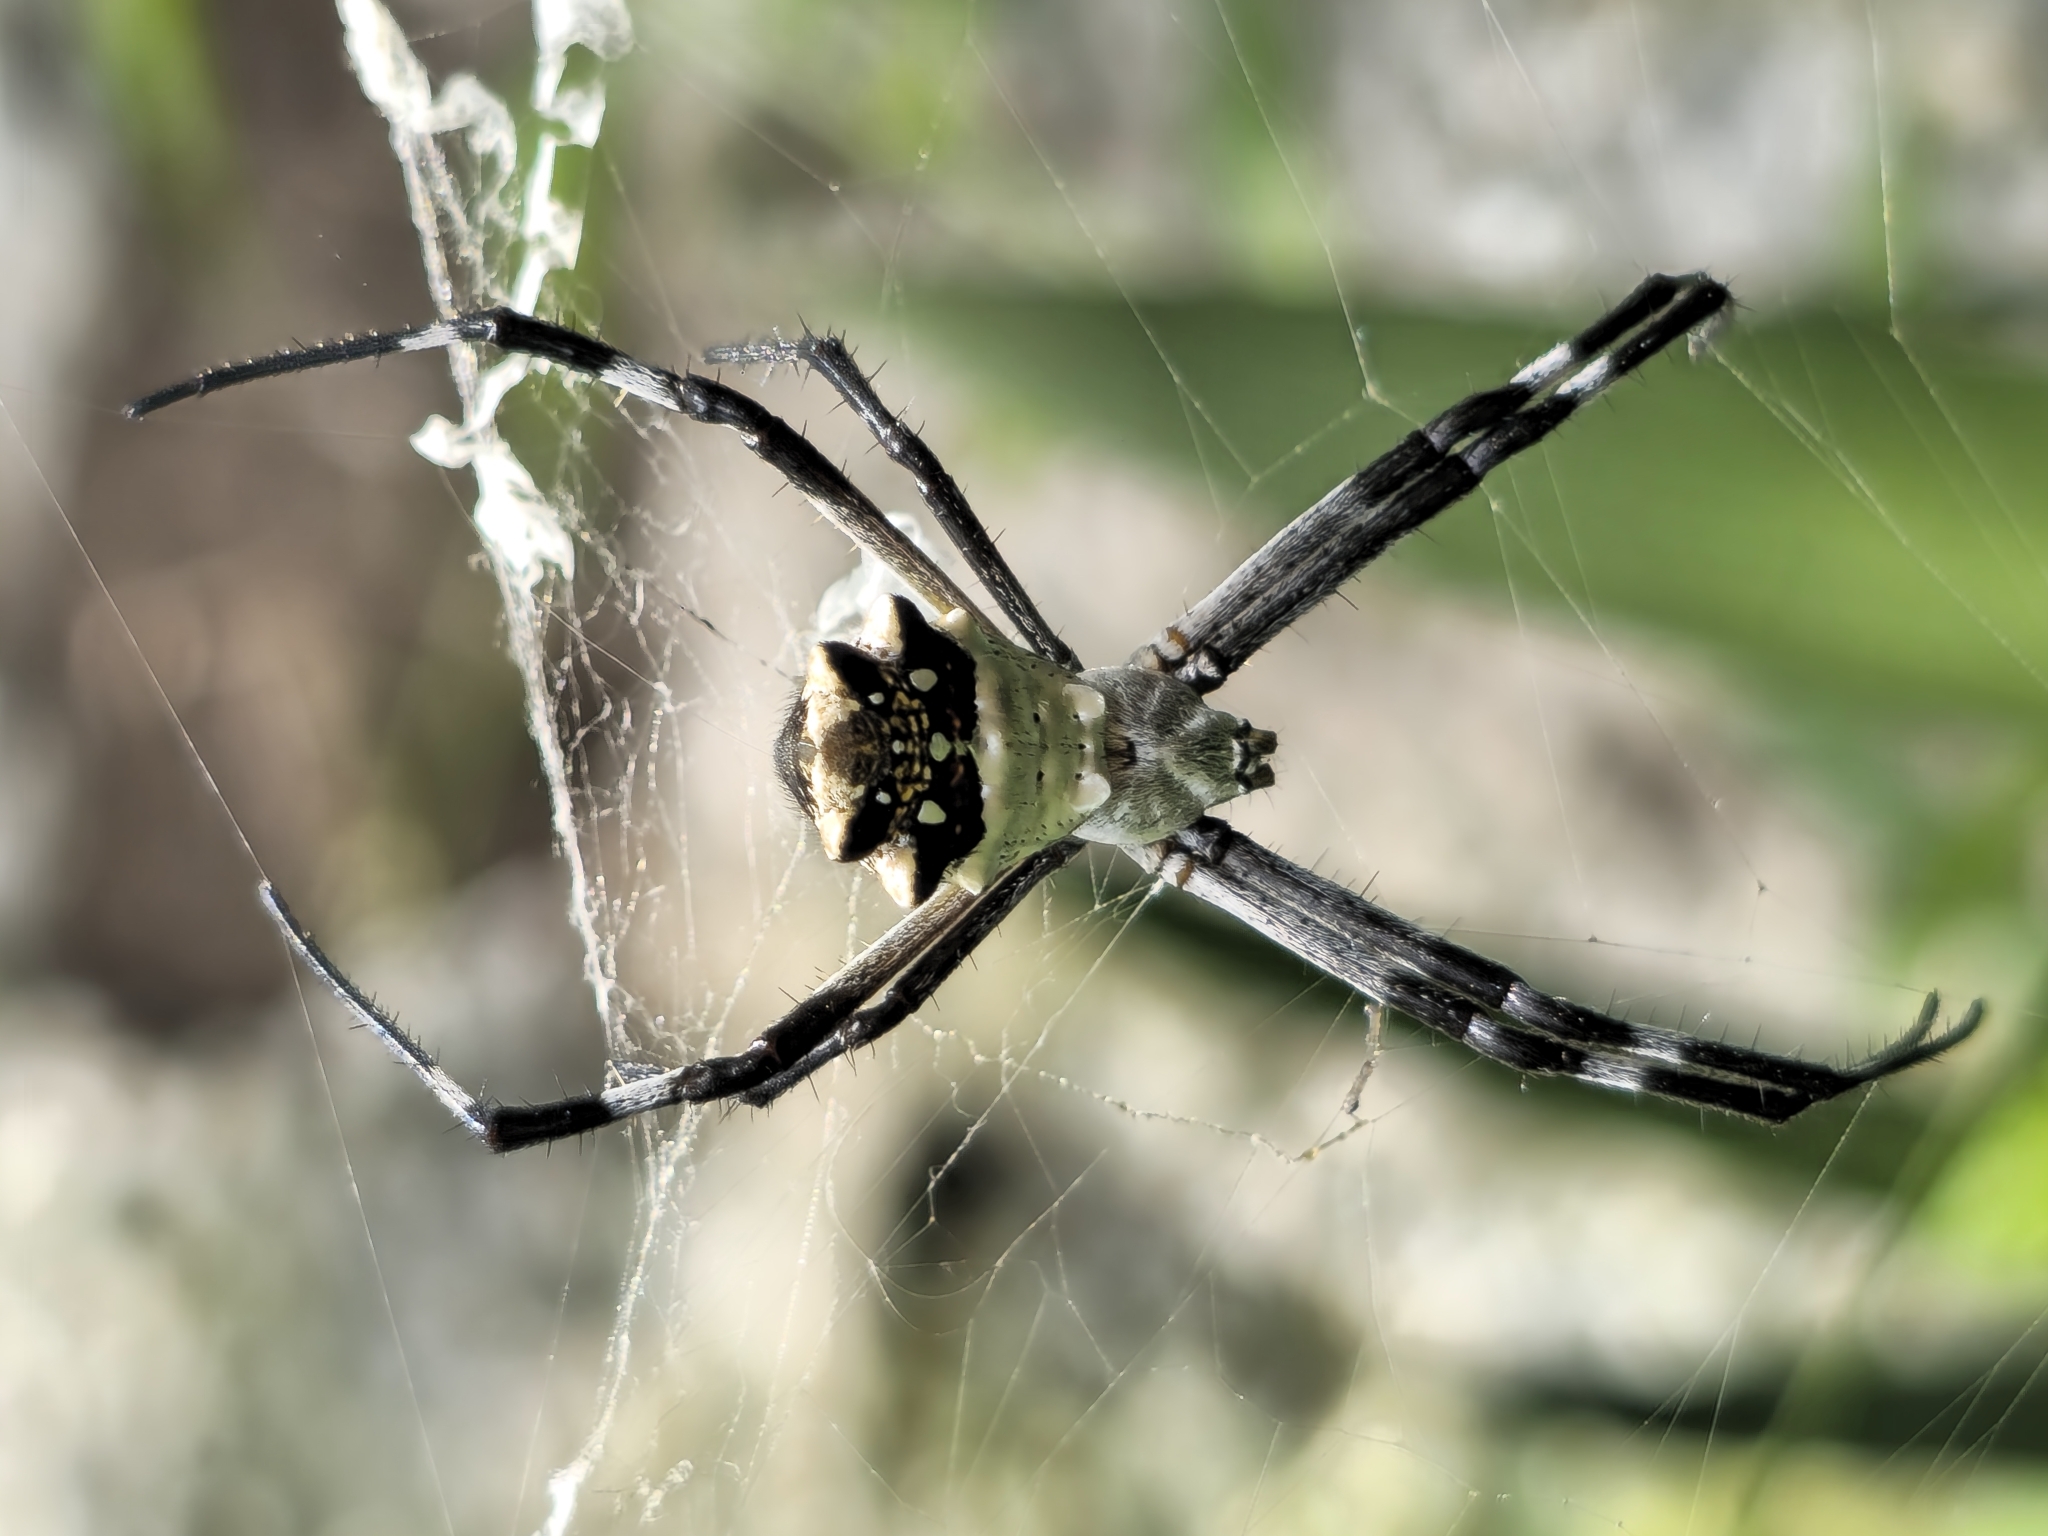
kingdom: Animalia
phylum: Arthropoda
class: Arachnida
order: Araneae
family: Araneidae
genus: Argiope
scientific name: Argiope argentata
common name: Orb weavers
